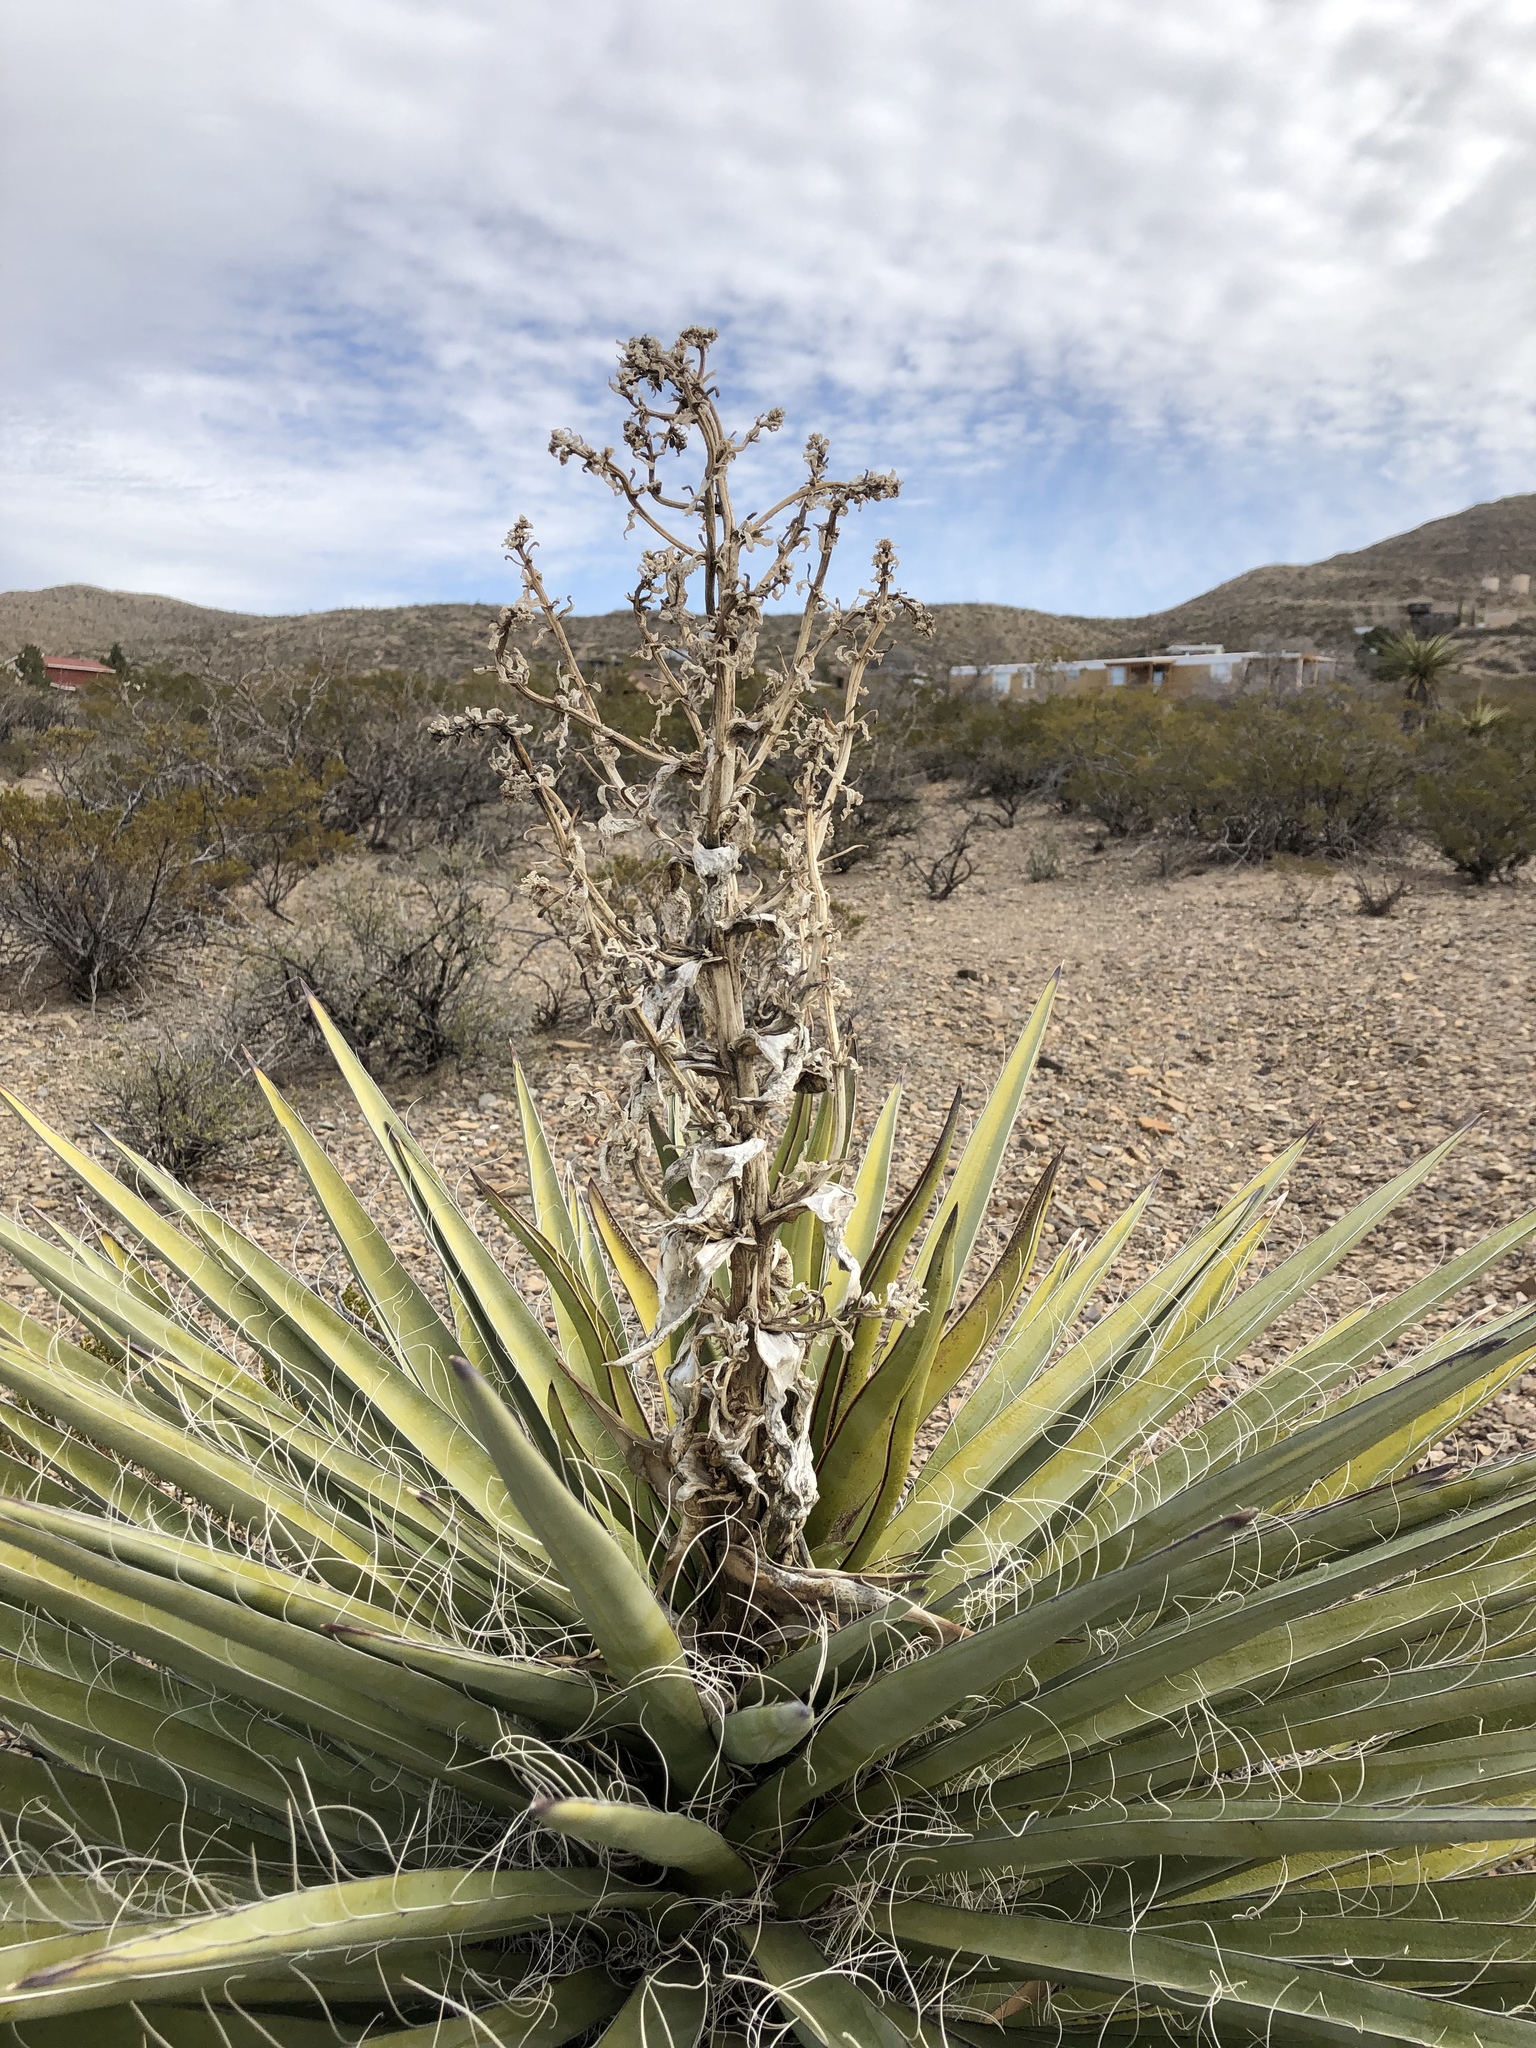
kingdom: Plantae
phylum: Tracheophyta
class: Liliopsida
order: Asparagales
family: Asparagaceae
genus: Yucca
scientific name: Yucca treculiana
